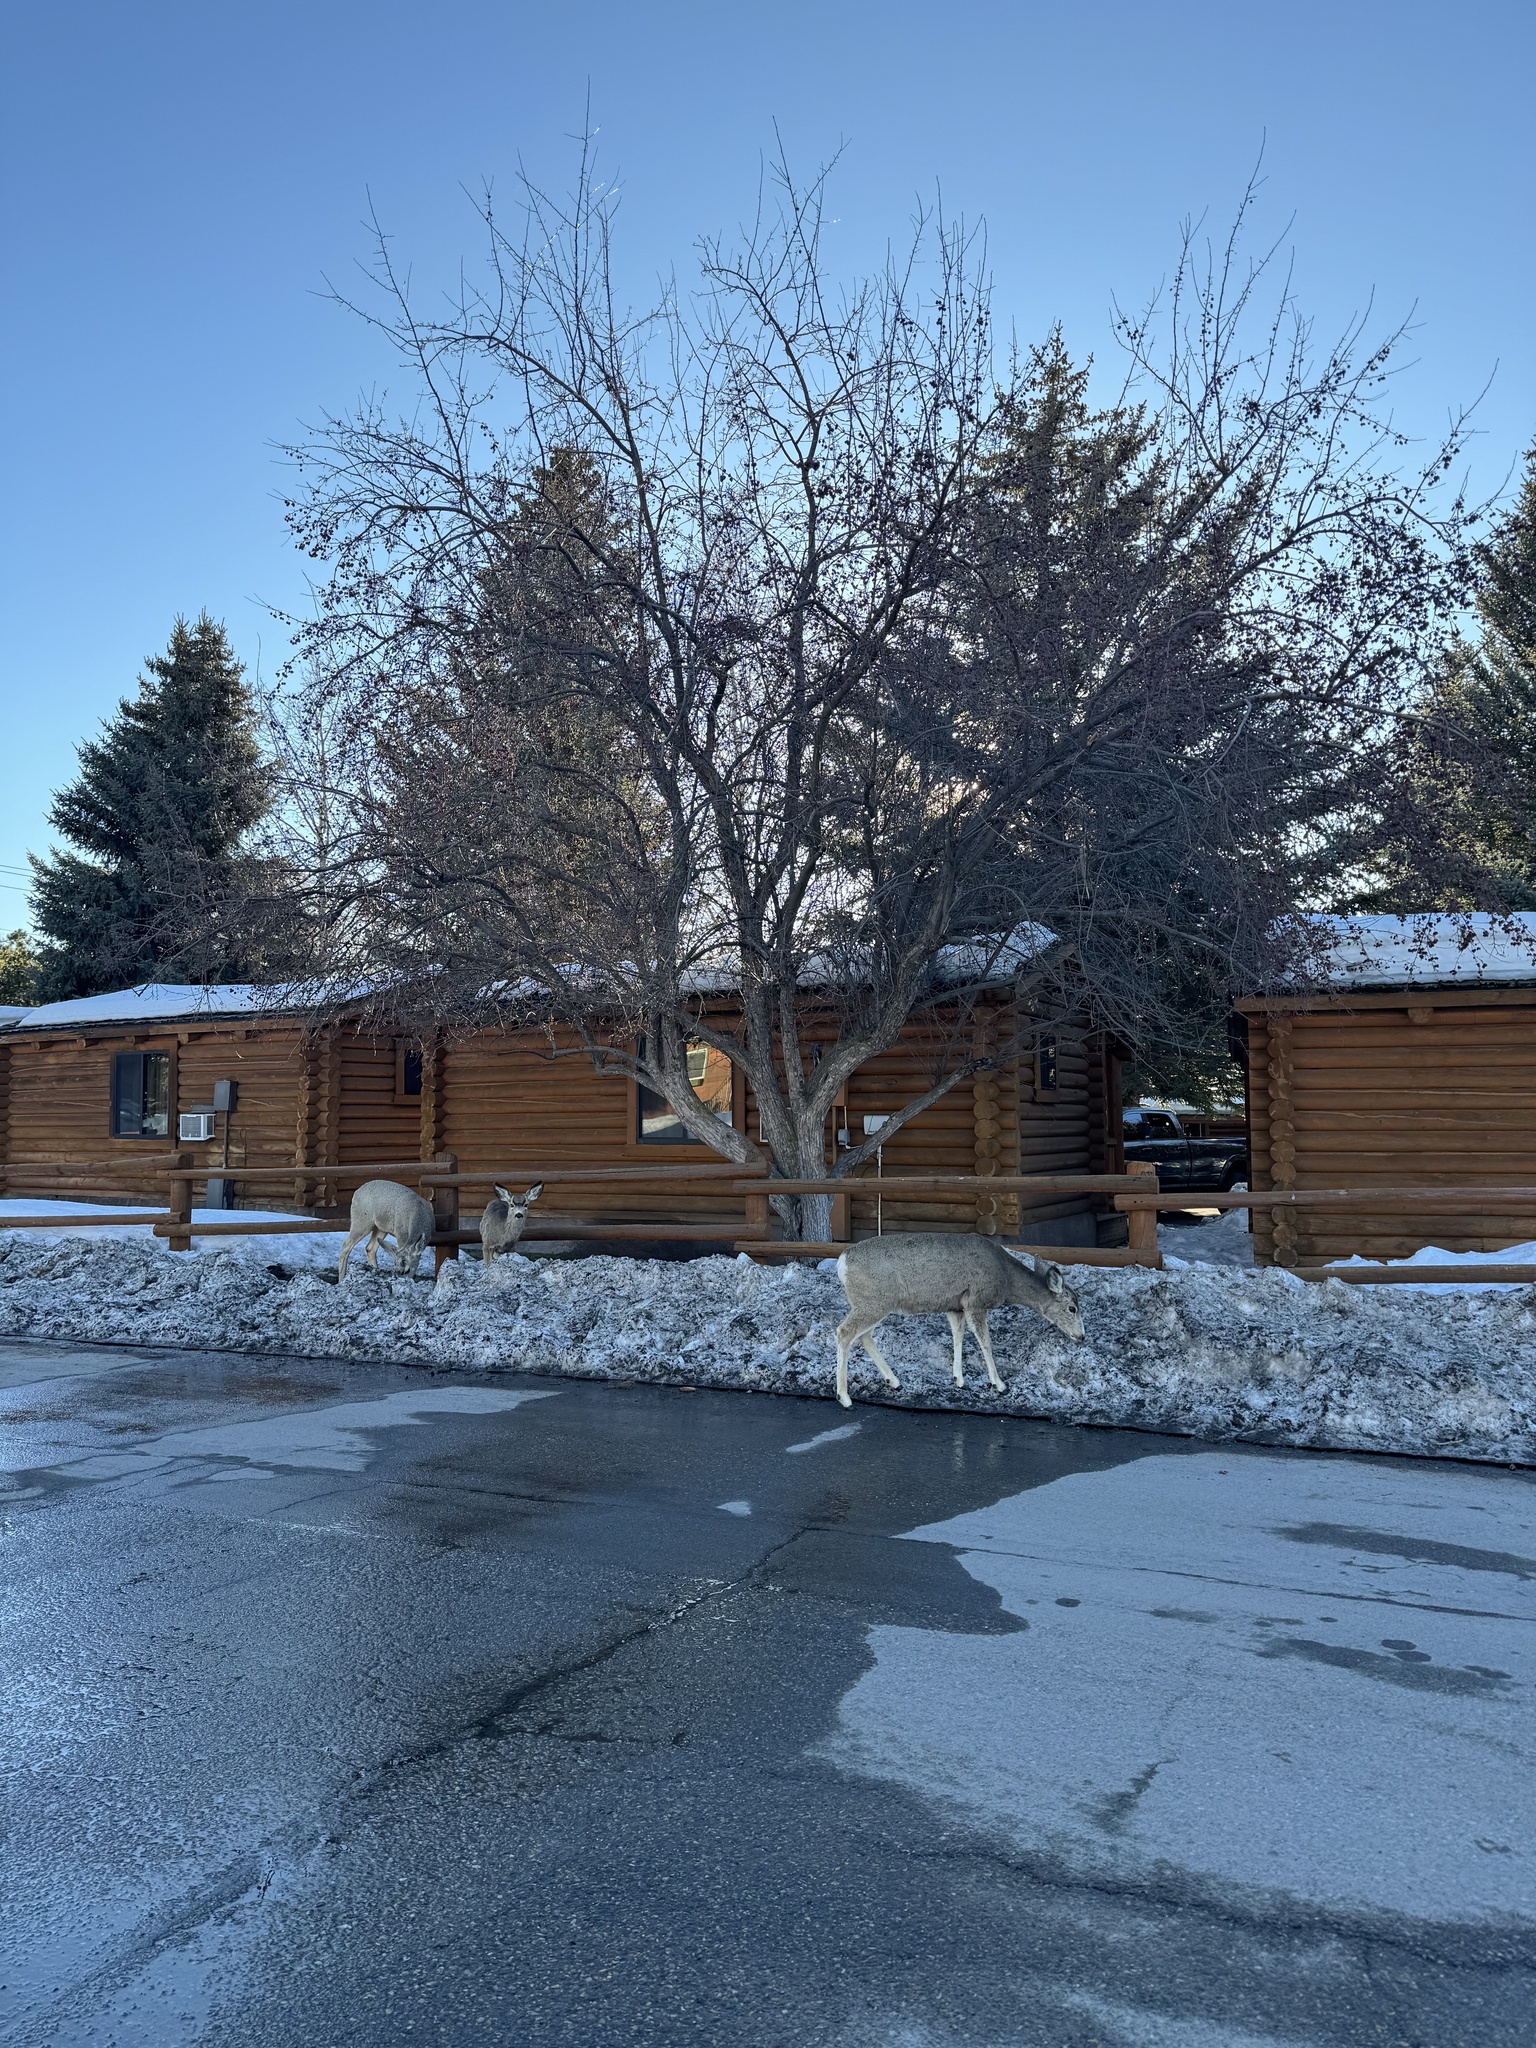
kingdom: Animalia
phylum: Chordata
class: Mammalia
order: Artiodactyla
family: Cervidae
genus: Odocoileus
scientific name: Odocoileus hemionus
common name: Mule deer
